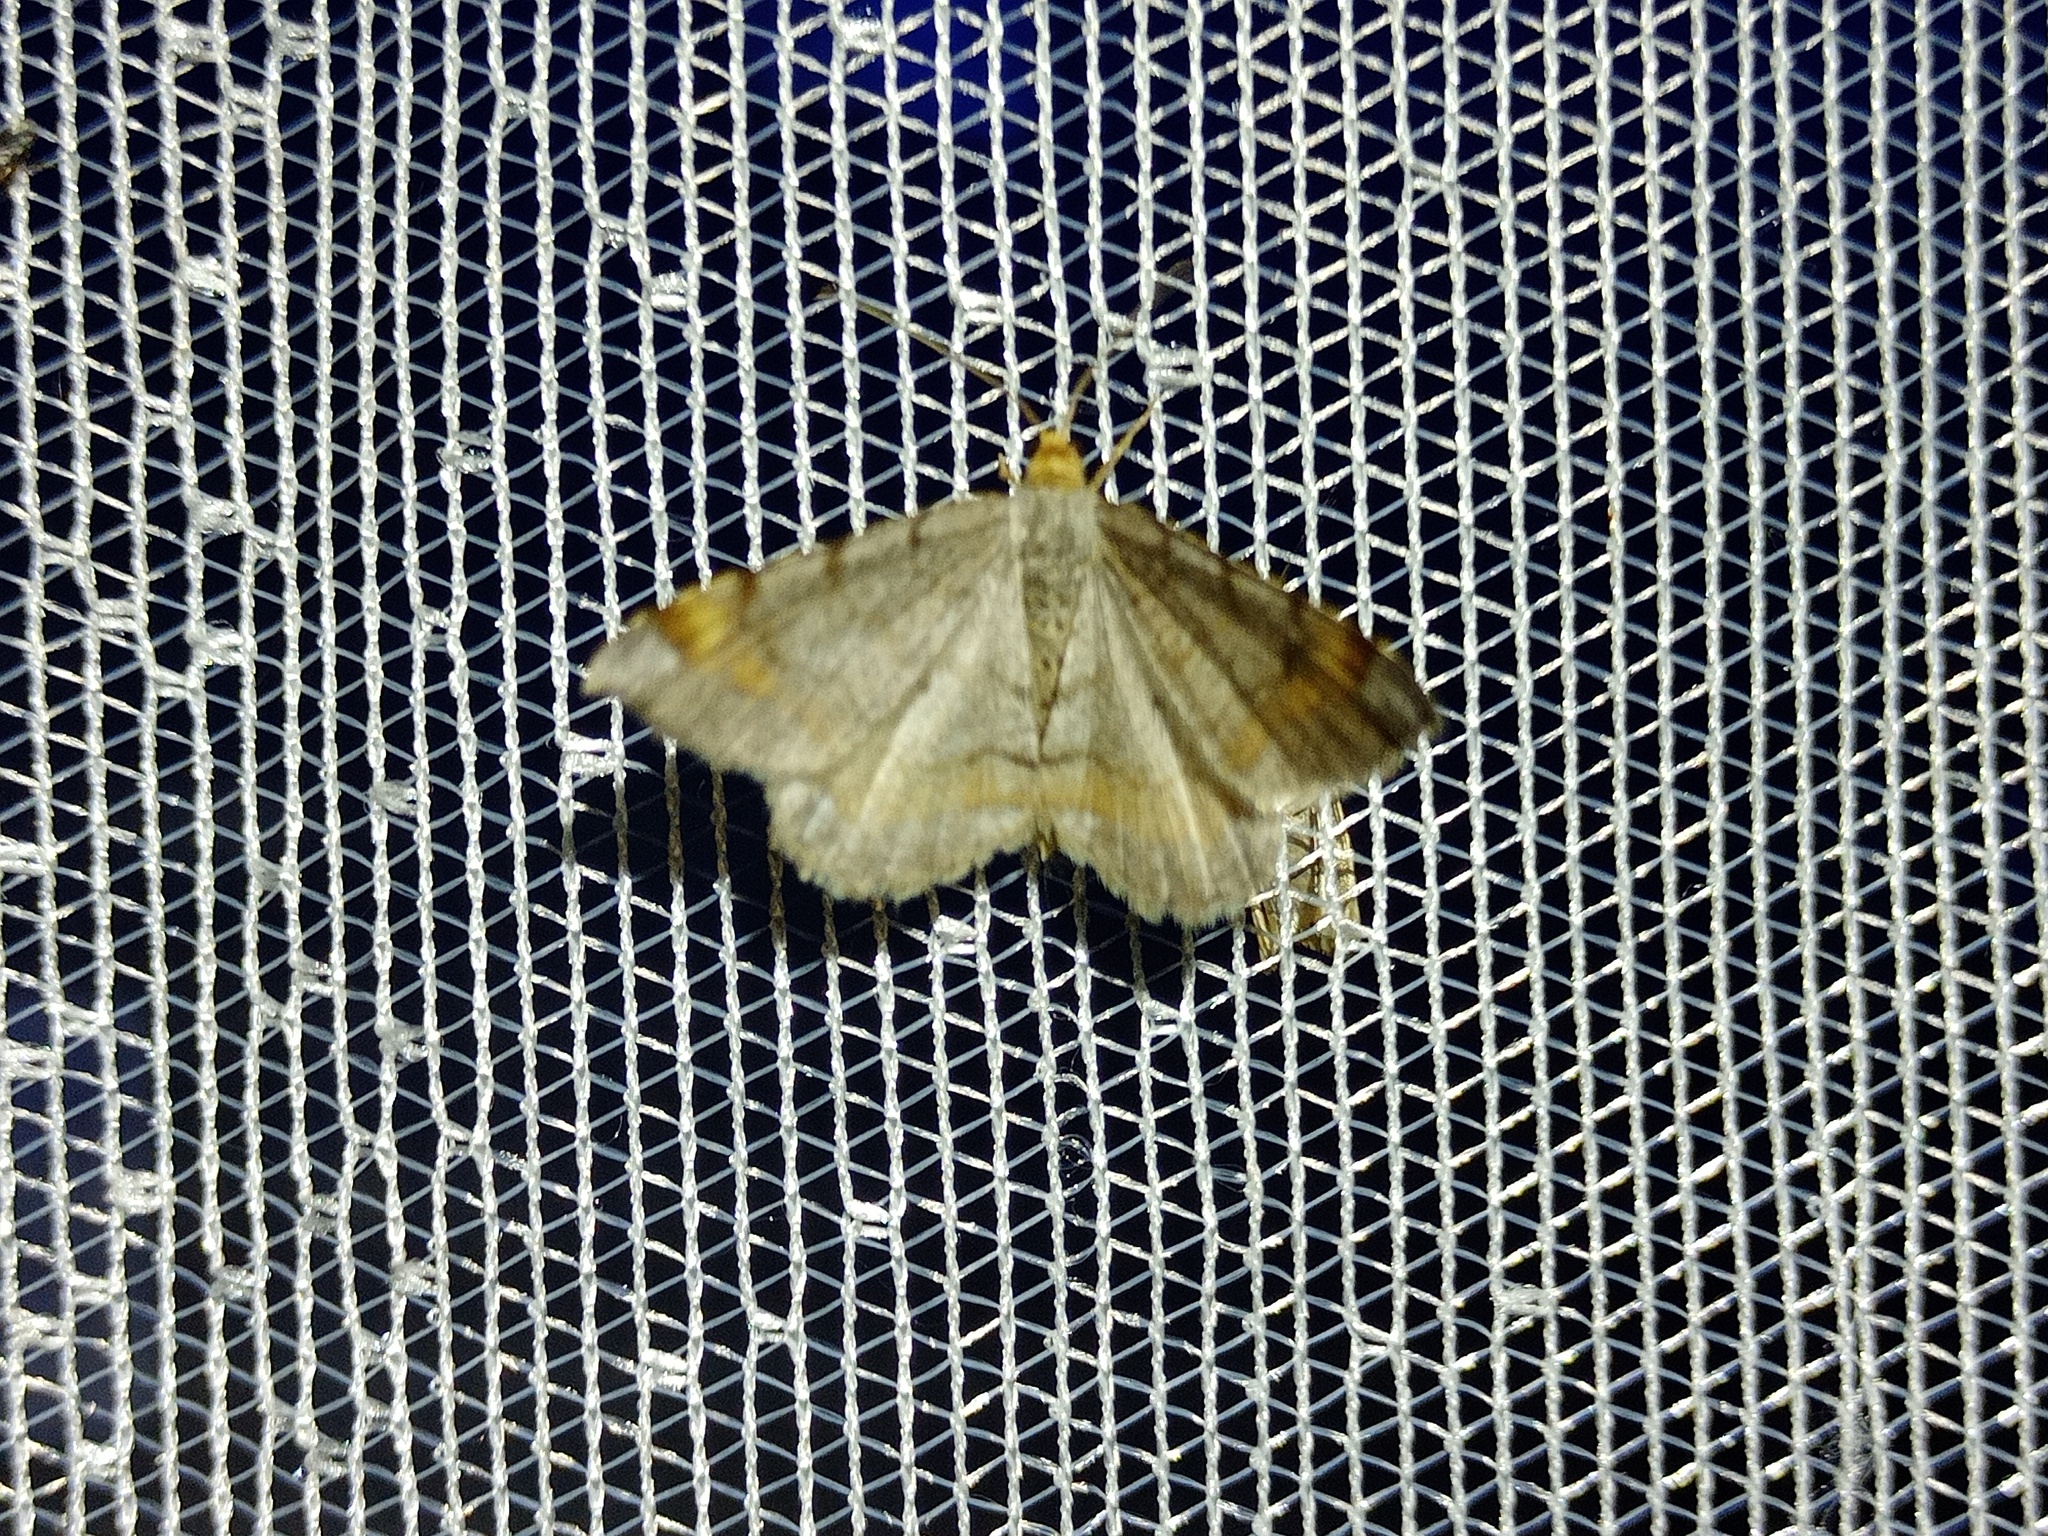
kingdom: Animalia
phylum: Arthropoda
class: Insecta
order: Lepidoptera
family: Geometridae
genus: Macaria
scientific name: Macaria liturata
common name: Tawny-barred angle
